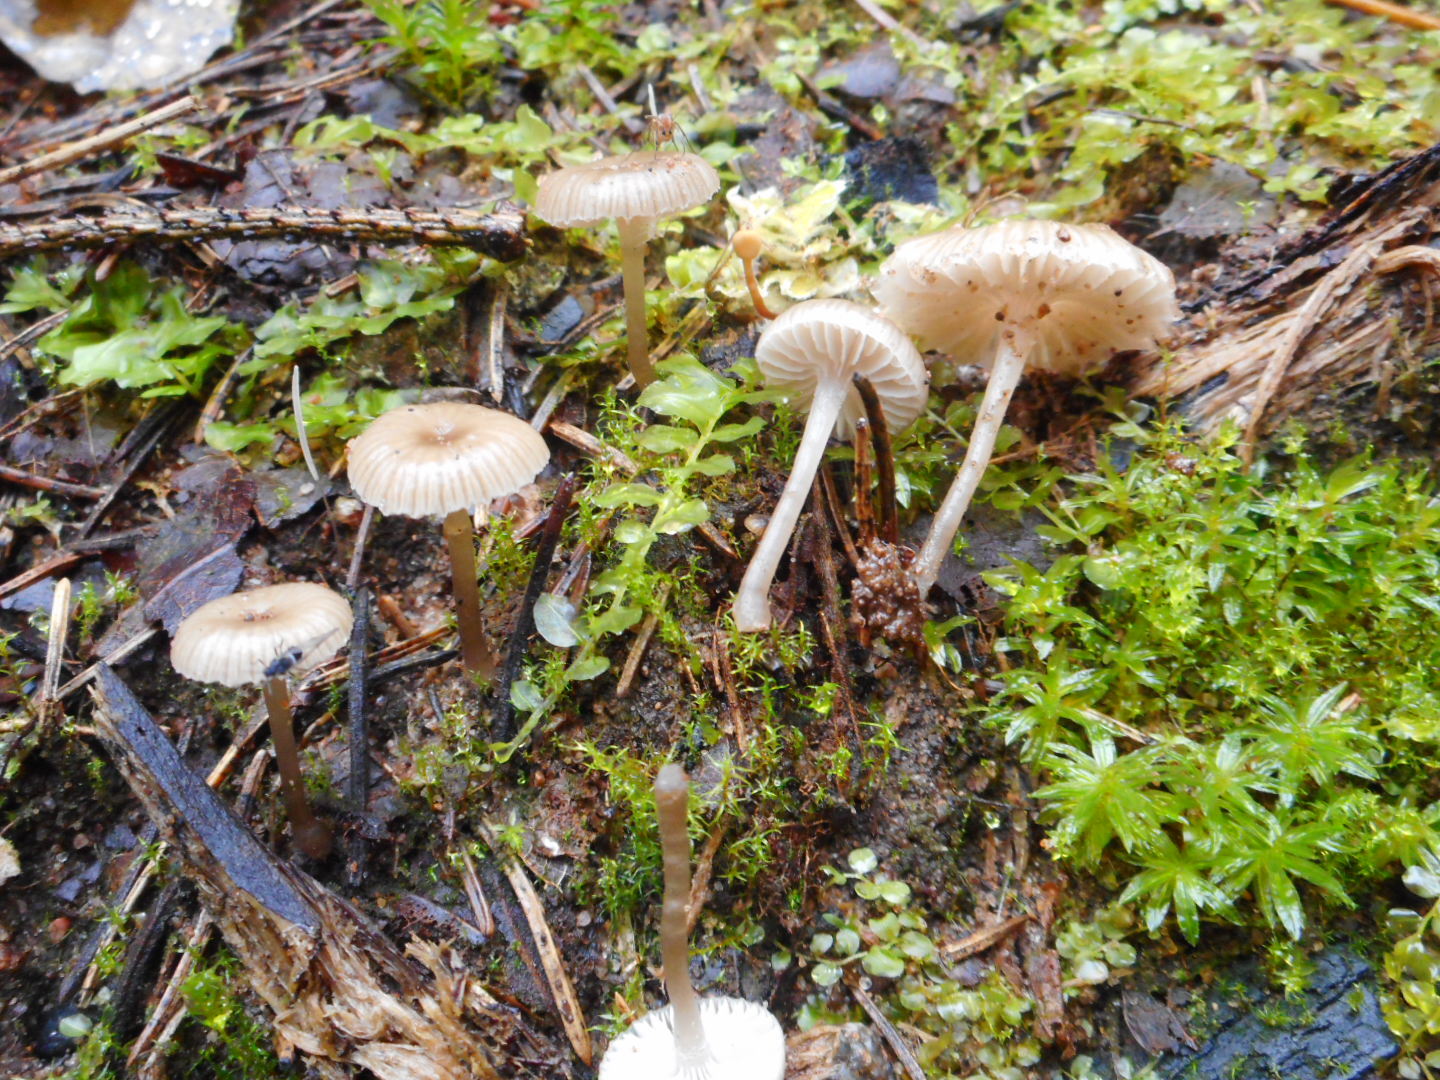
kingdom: Fungi
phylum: Basidiomycota
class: Agaricomycetes
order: Agaricales
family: Mycenaceae
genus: Mycena
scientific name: Mycena clavicularis
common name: Needle bonnet
